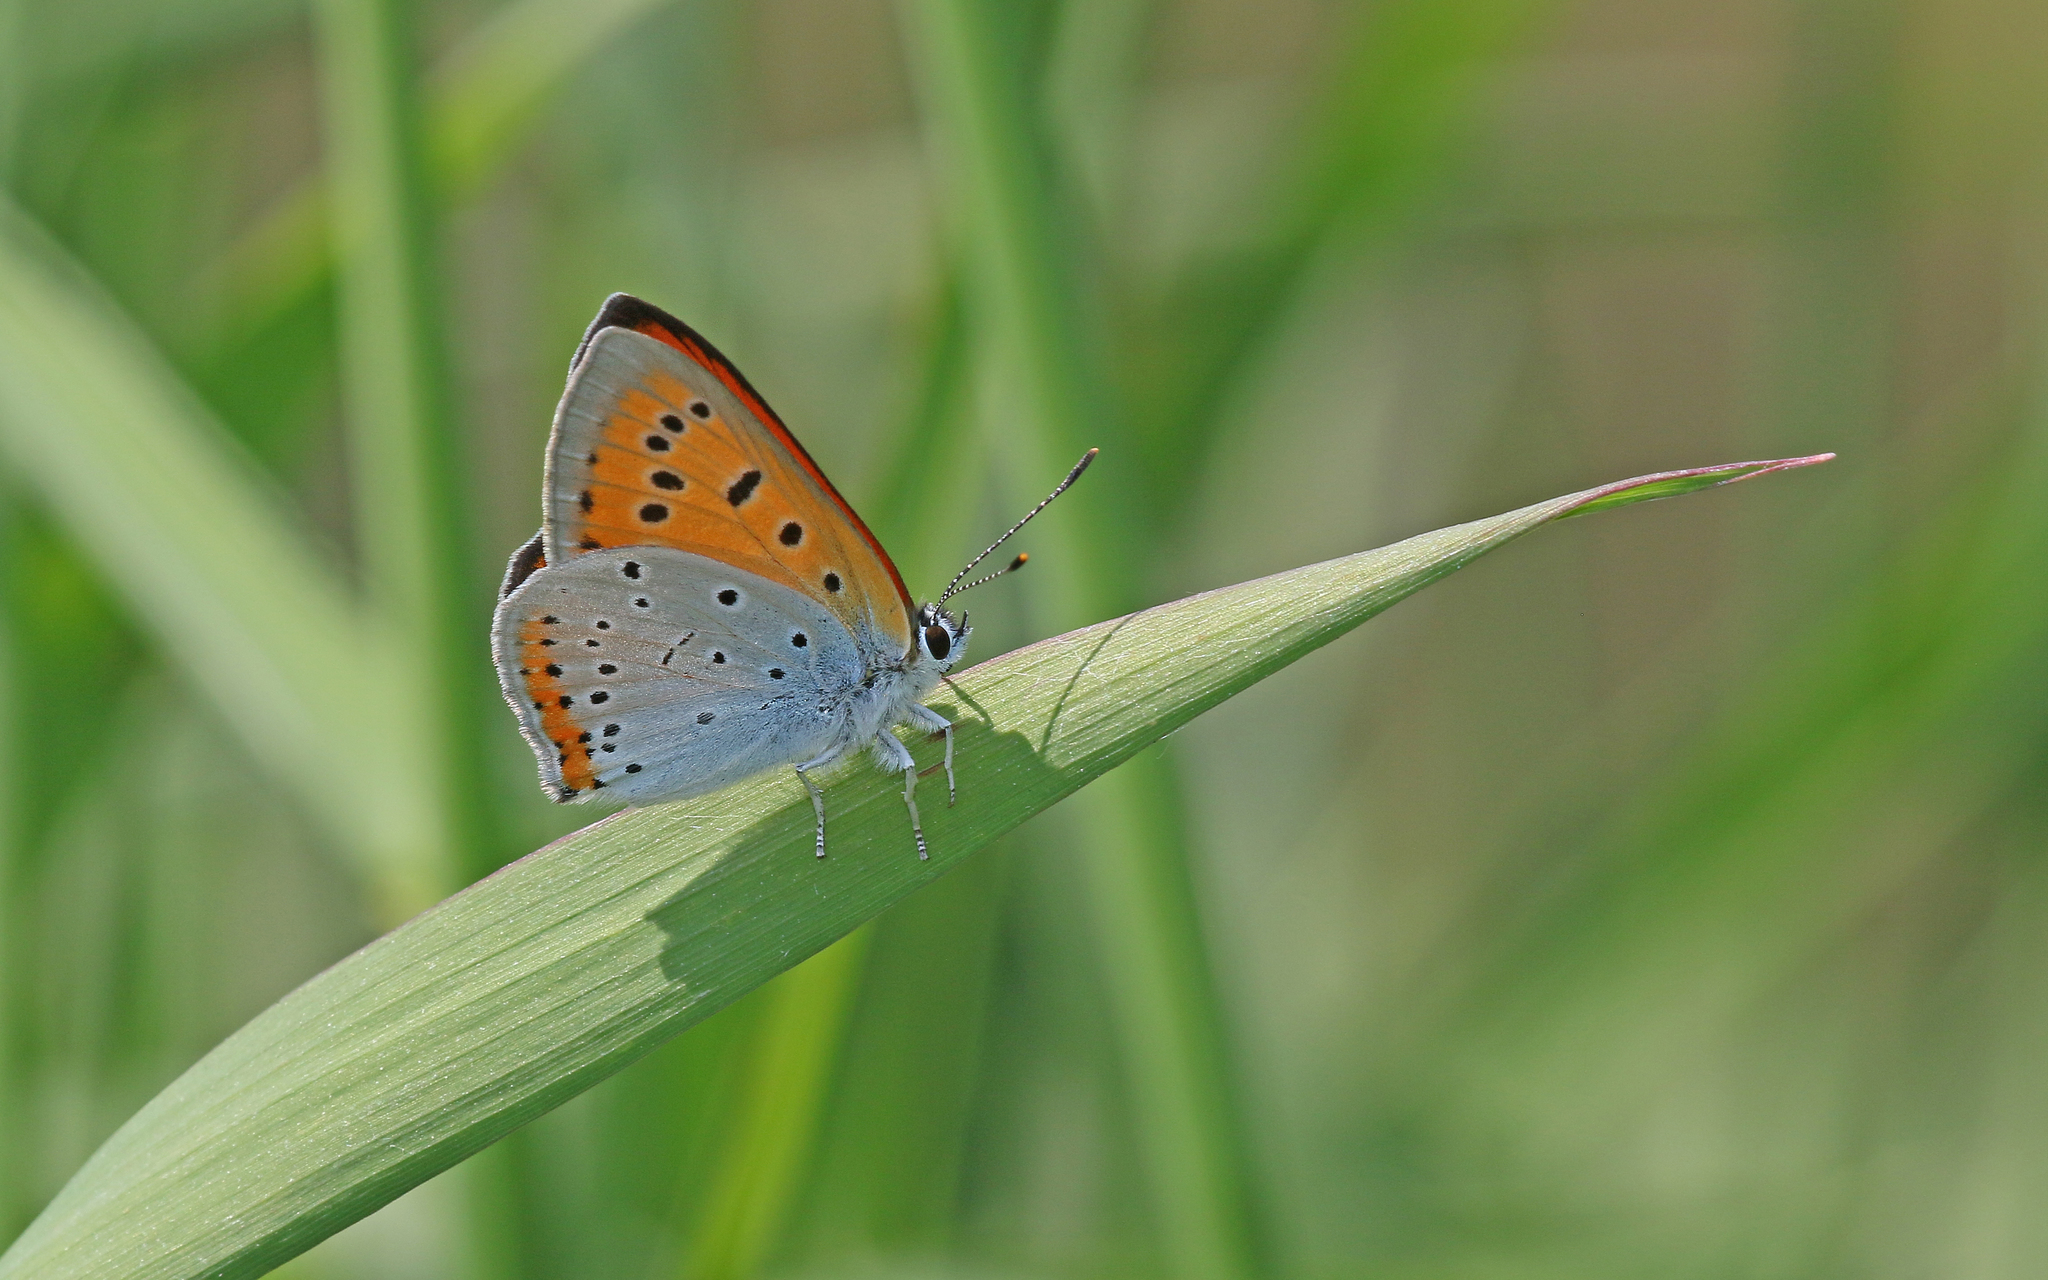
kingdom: Animalia
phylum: Arthropoda
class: Insecta
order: Lepidoptera
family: Lycaenidae
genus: Lycaena
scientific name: Lycaena dispar
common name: Large copper
